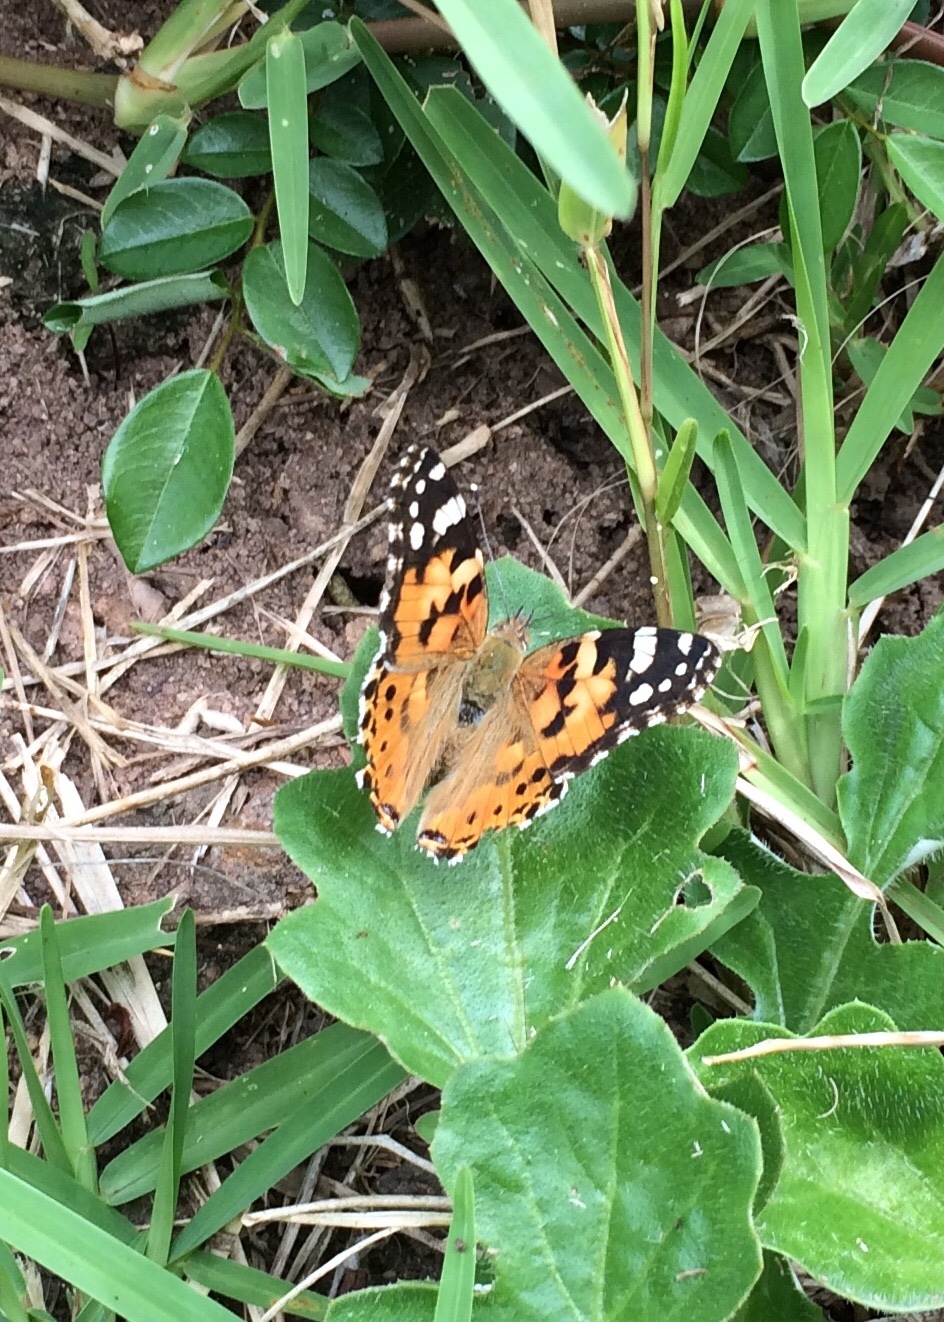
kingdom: Animalia
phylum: Arthropoda
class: Insecta
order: Lepidoptera
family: Nymphalidae
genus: Vanessa
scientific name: Vanessa cardui
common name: Painted lady
